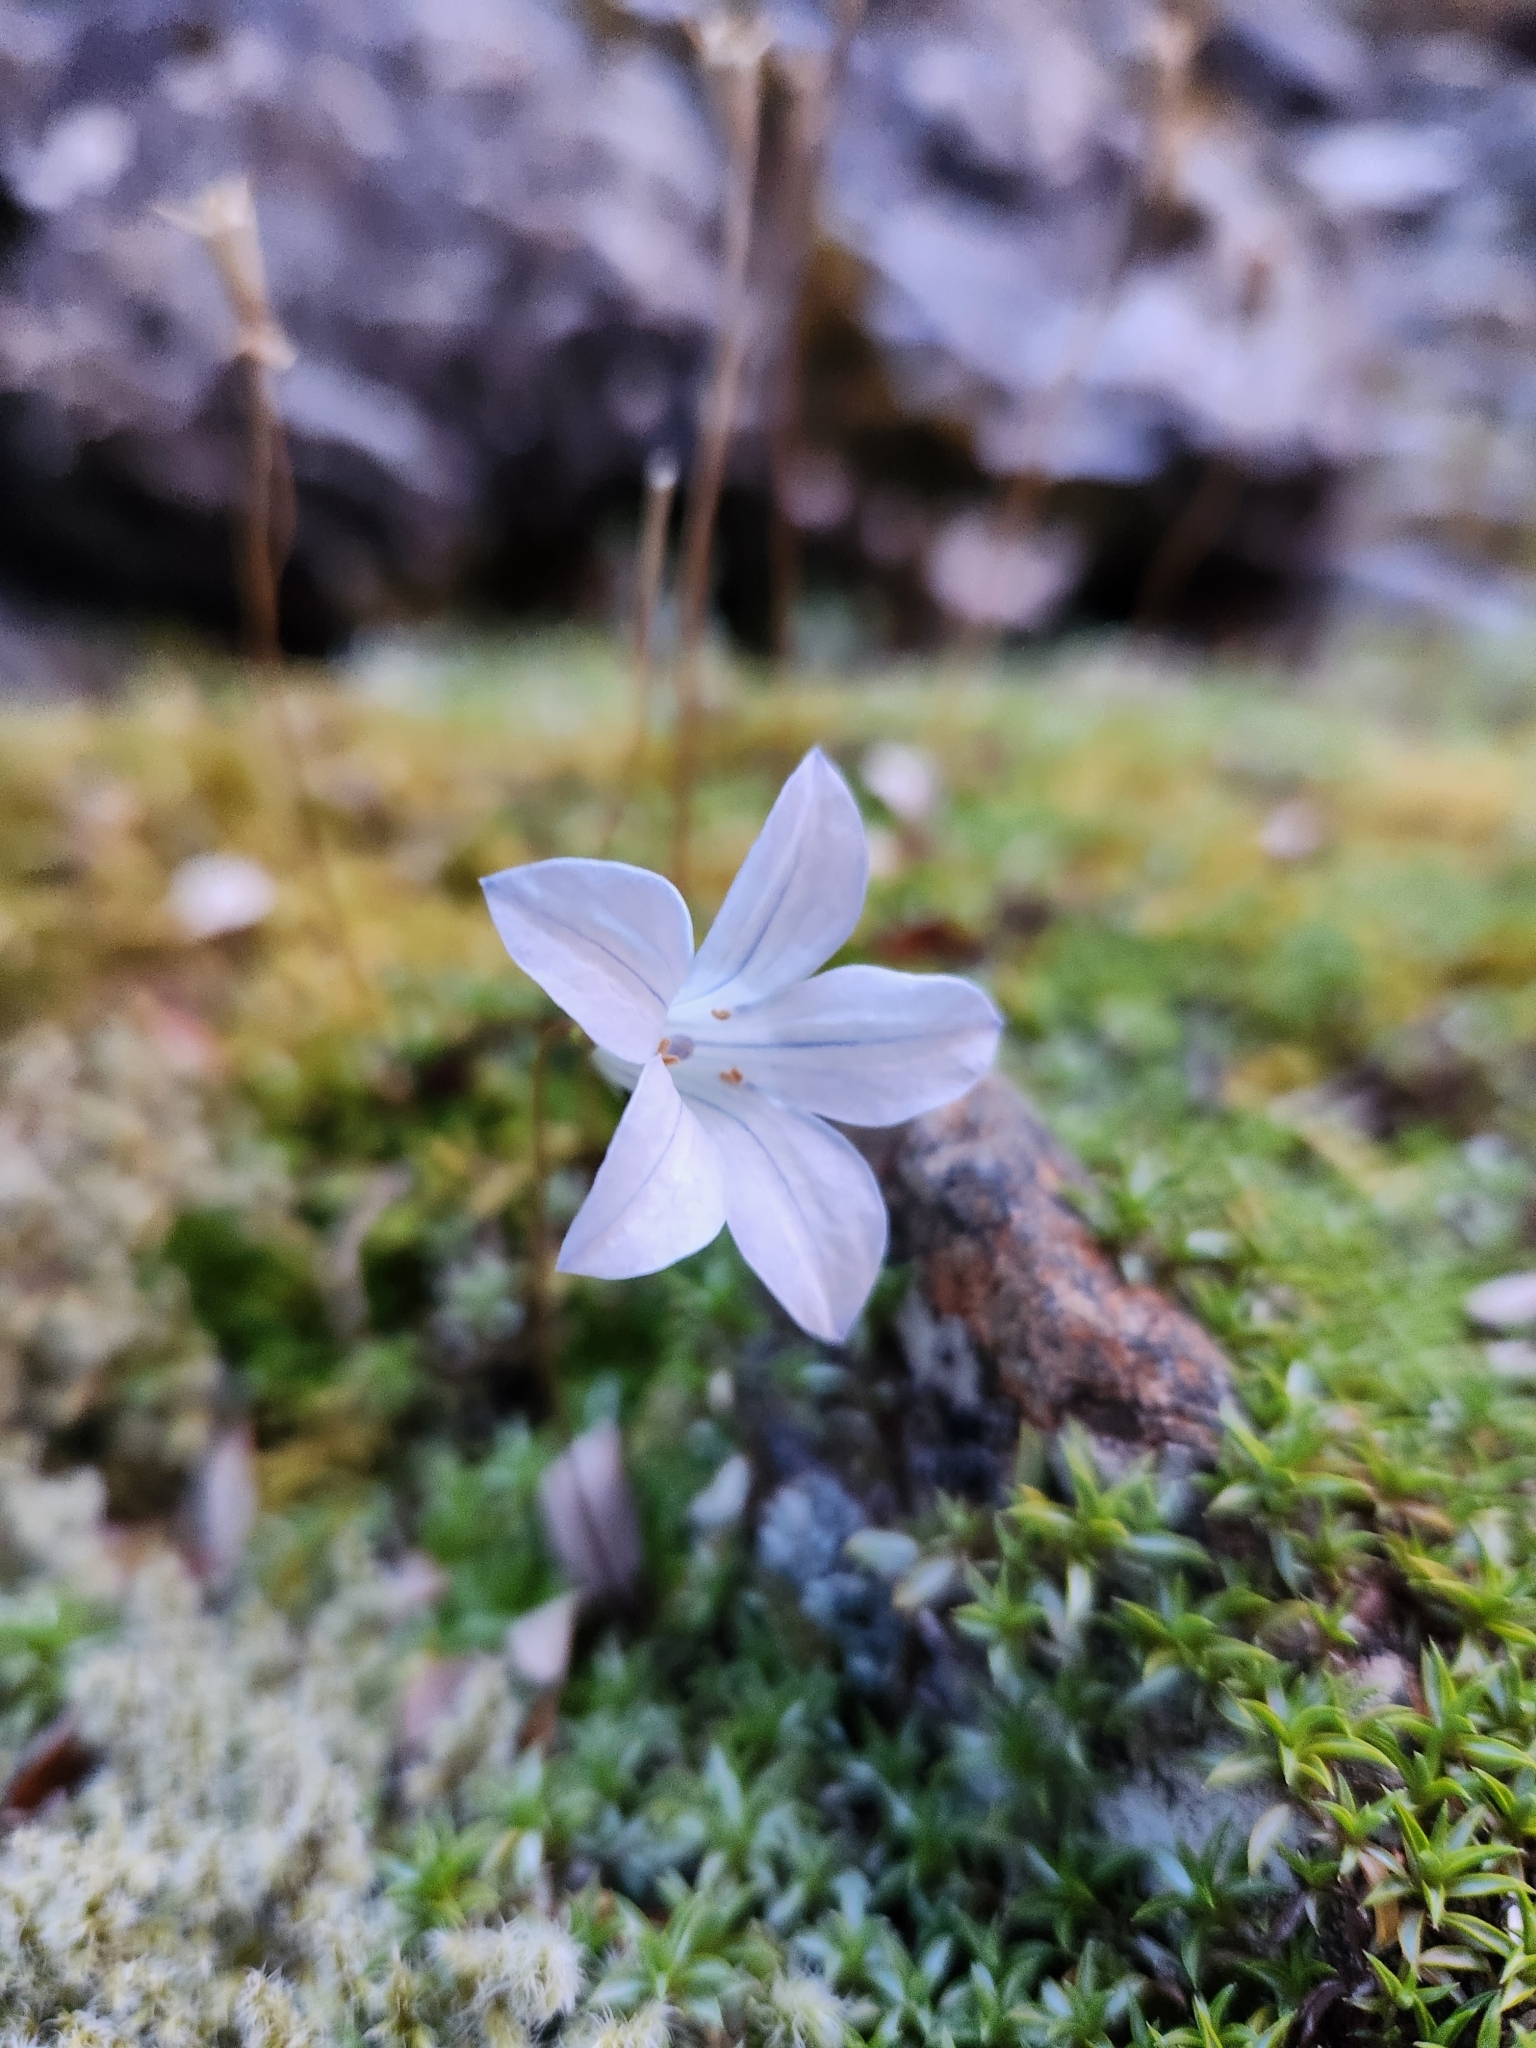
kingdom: Plantae
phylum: Tracheophyta
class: Magnoliopsida
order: Asterales
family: Campanulaceae
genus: Wahlenbergia
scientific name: Wahlenbergia albomarginata
